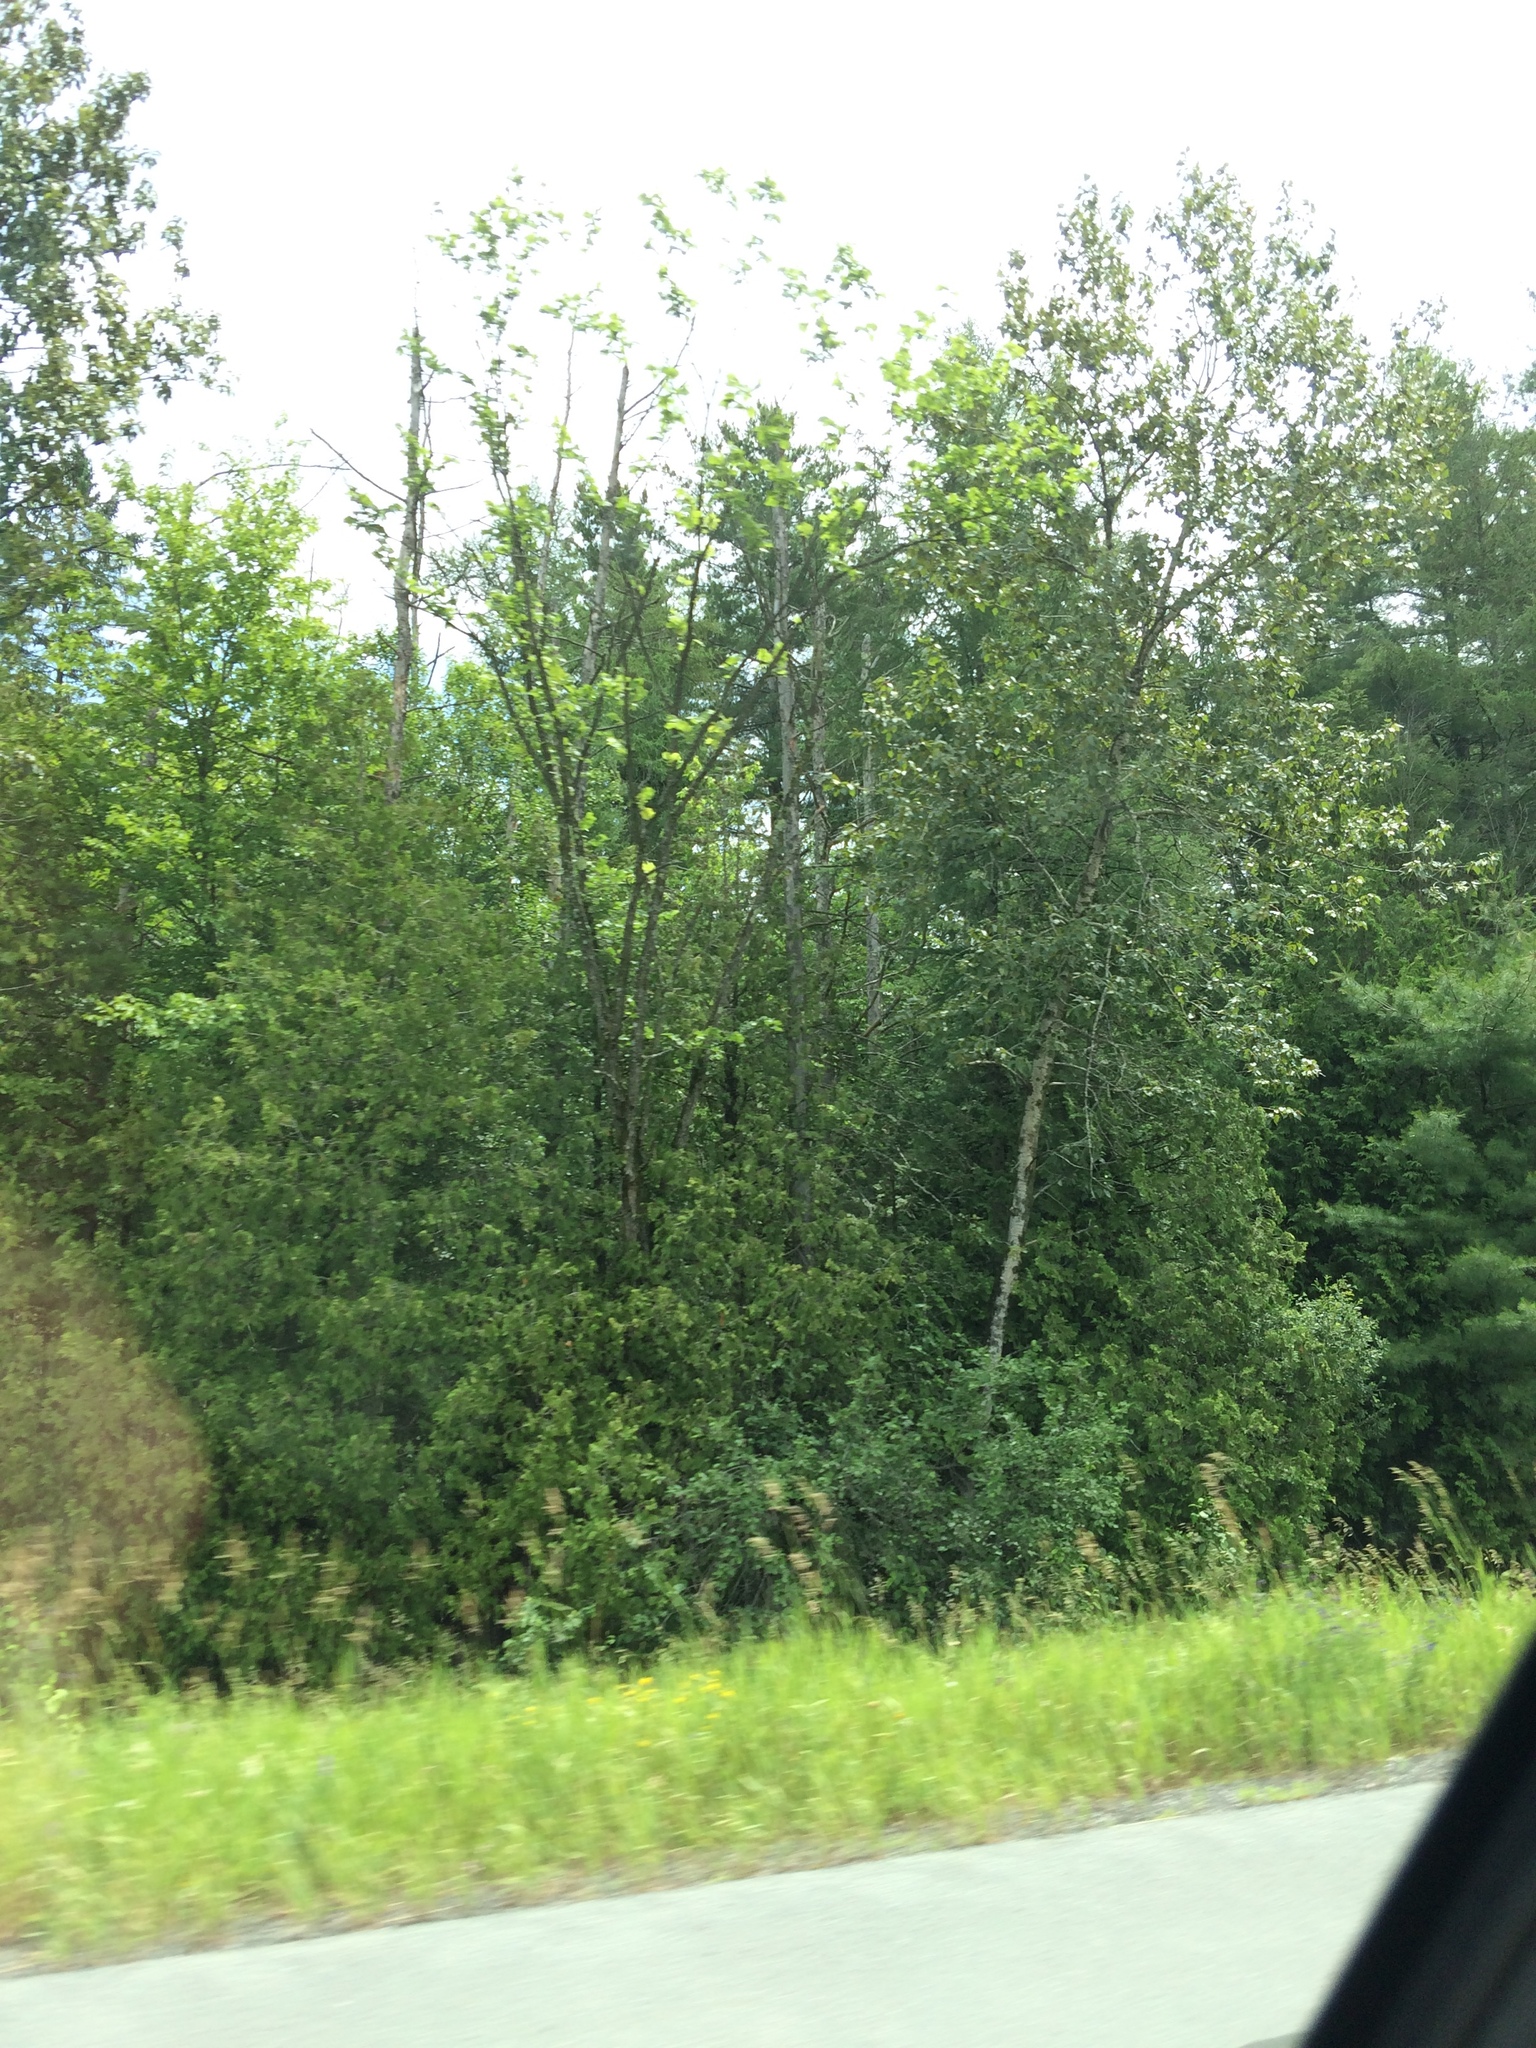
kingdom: Plantae
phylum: Tracheophyta
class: Magnoliopsida
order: Malpighiales
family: Salicaceae
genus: Populus
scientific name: Populus balsamifera
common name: Balsam poplar
